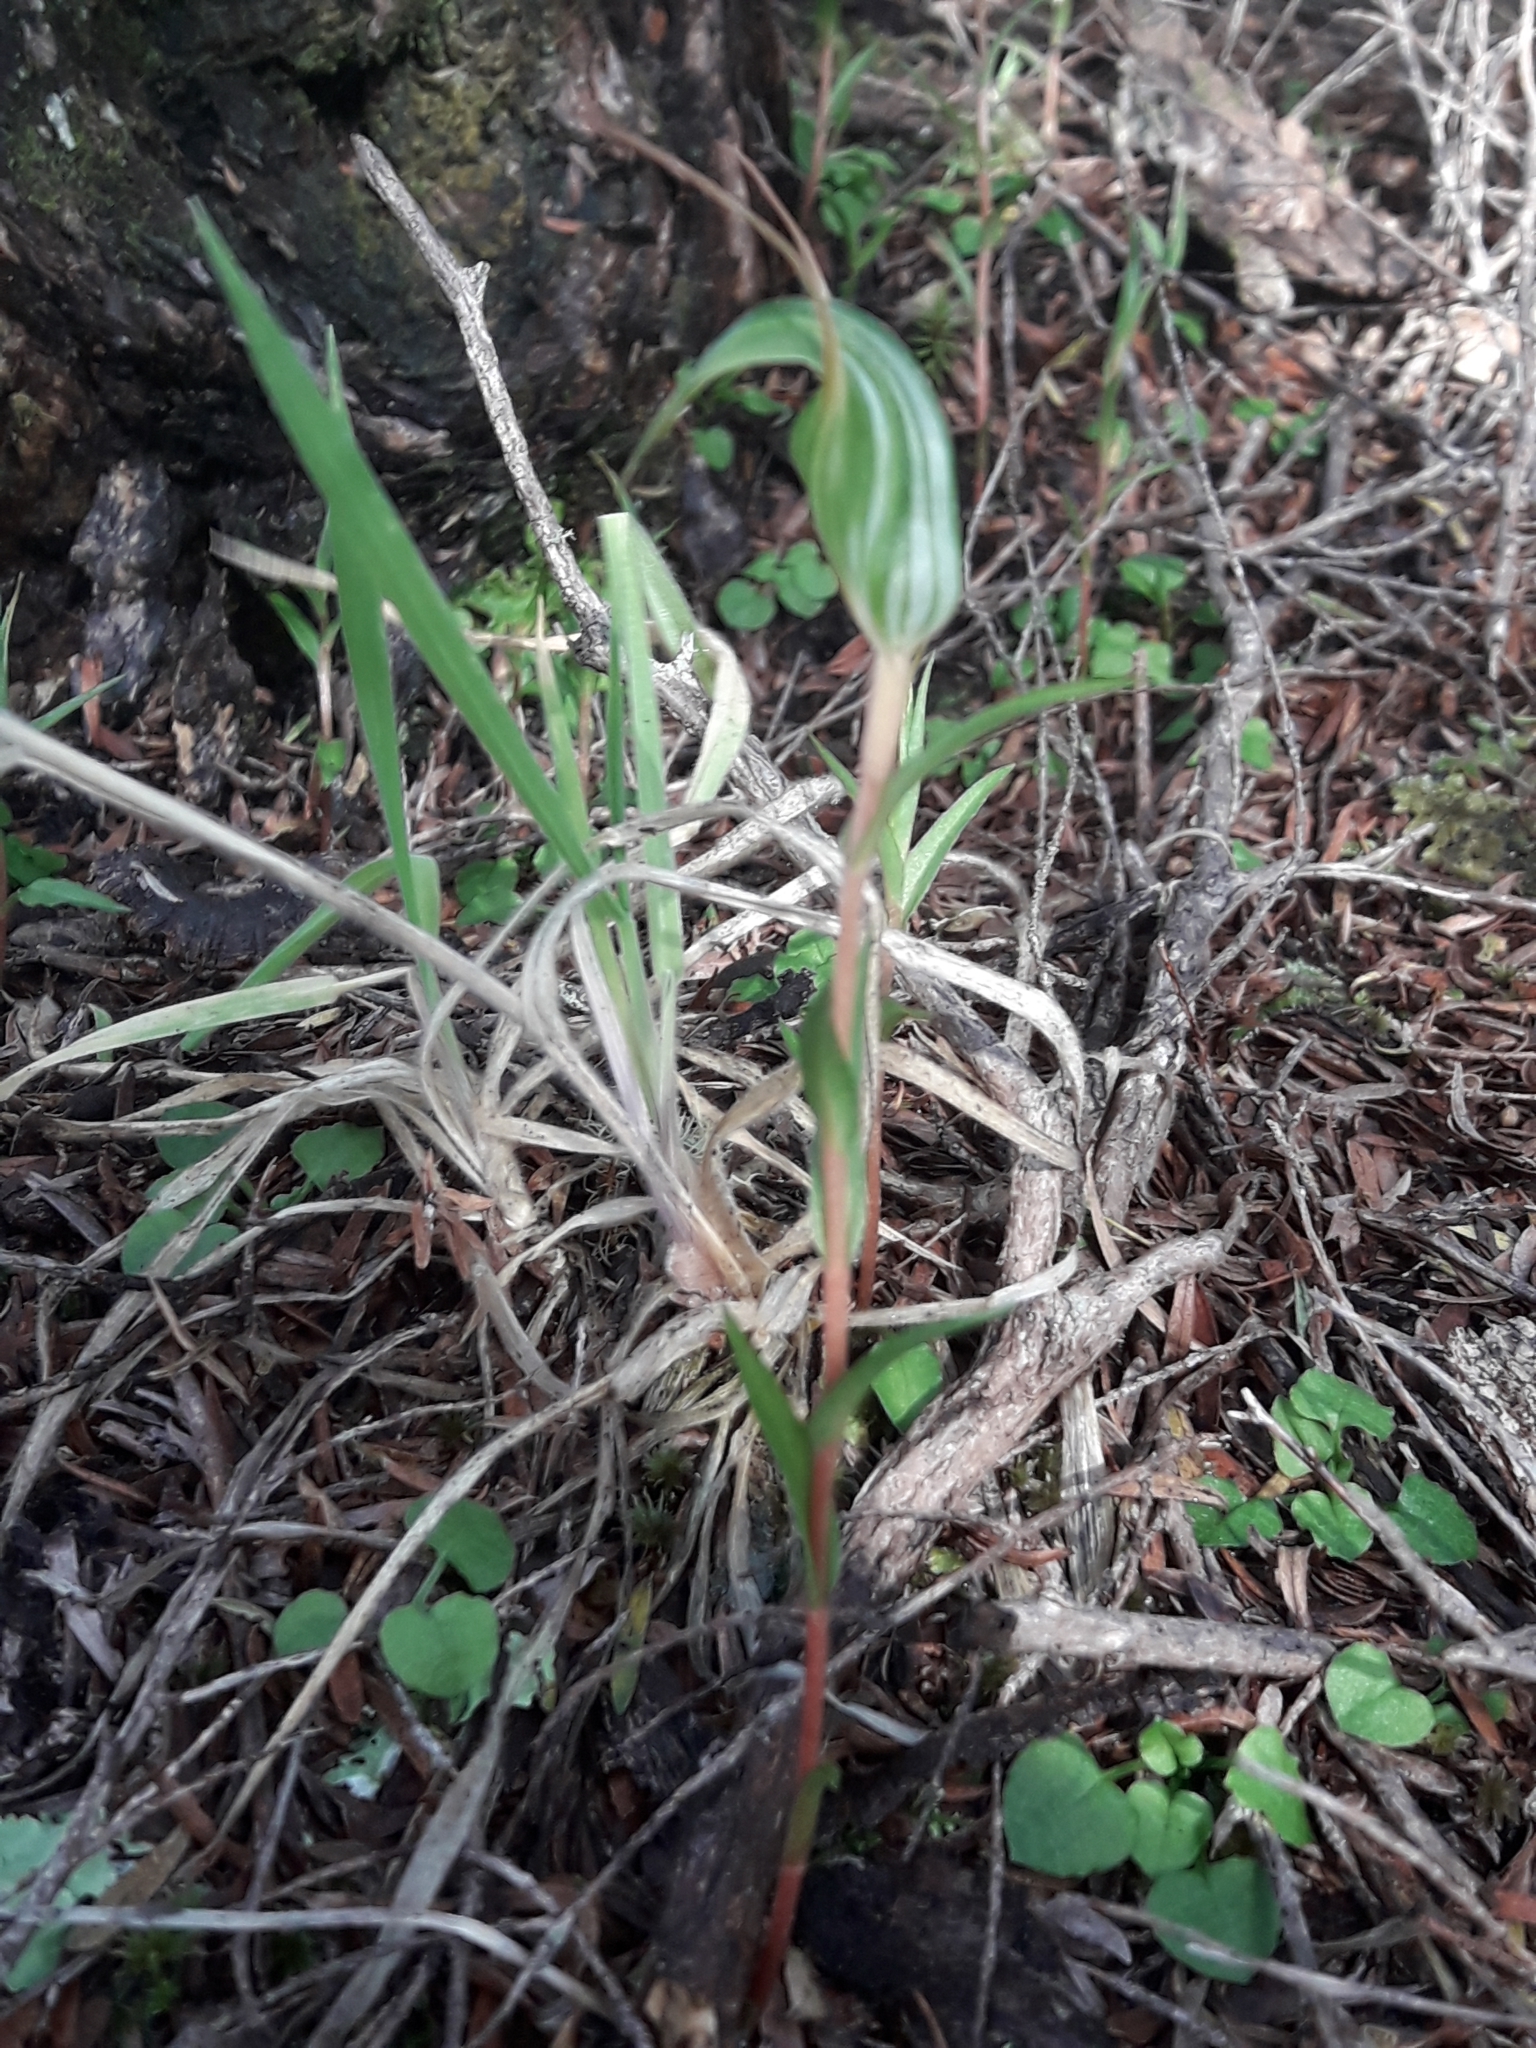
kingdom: Plantae
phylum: Tracheophyta
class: Liliopsida
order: Asparagales
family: Orchidaceae
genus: Pterostylis
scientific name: Pterostylis alobula
